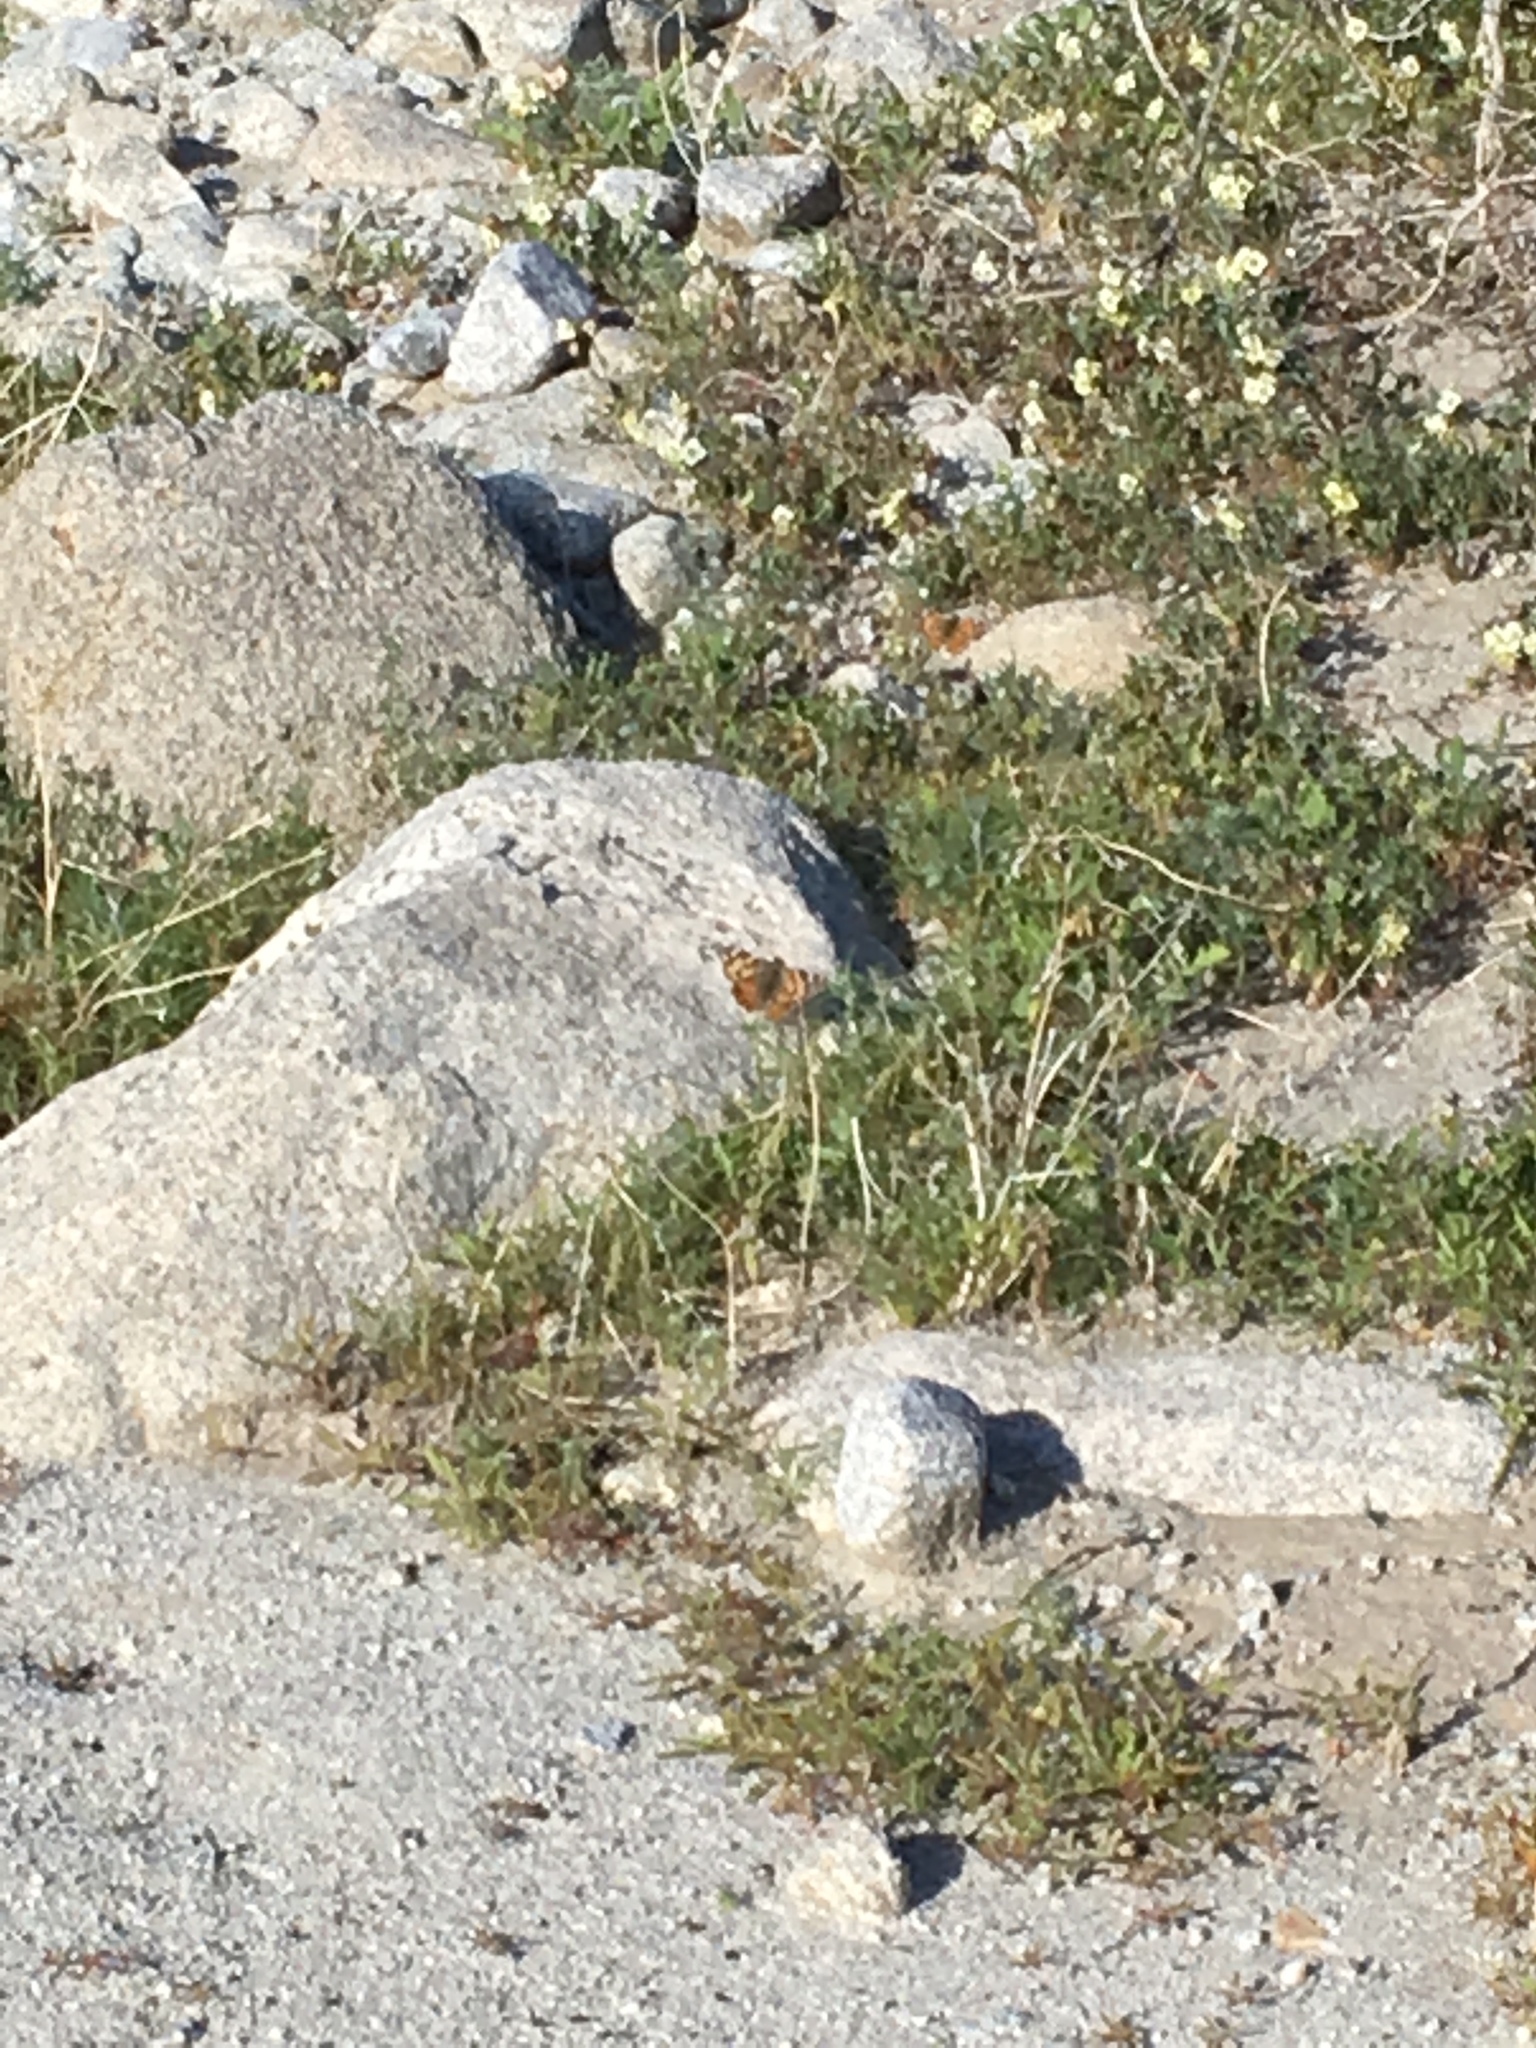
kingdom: Animalia
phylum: Arthropoda
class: Insecta
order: Lepidoptera
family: Nymphalidae
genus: Vanessa
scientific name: Vanessa cardui
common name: Painted lady
